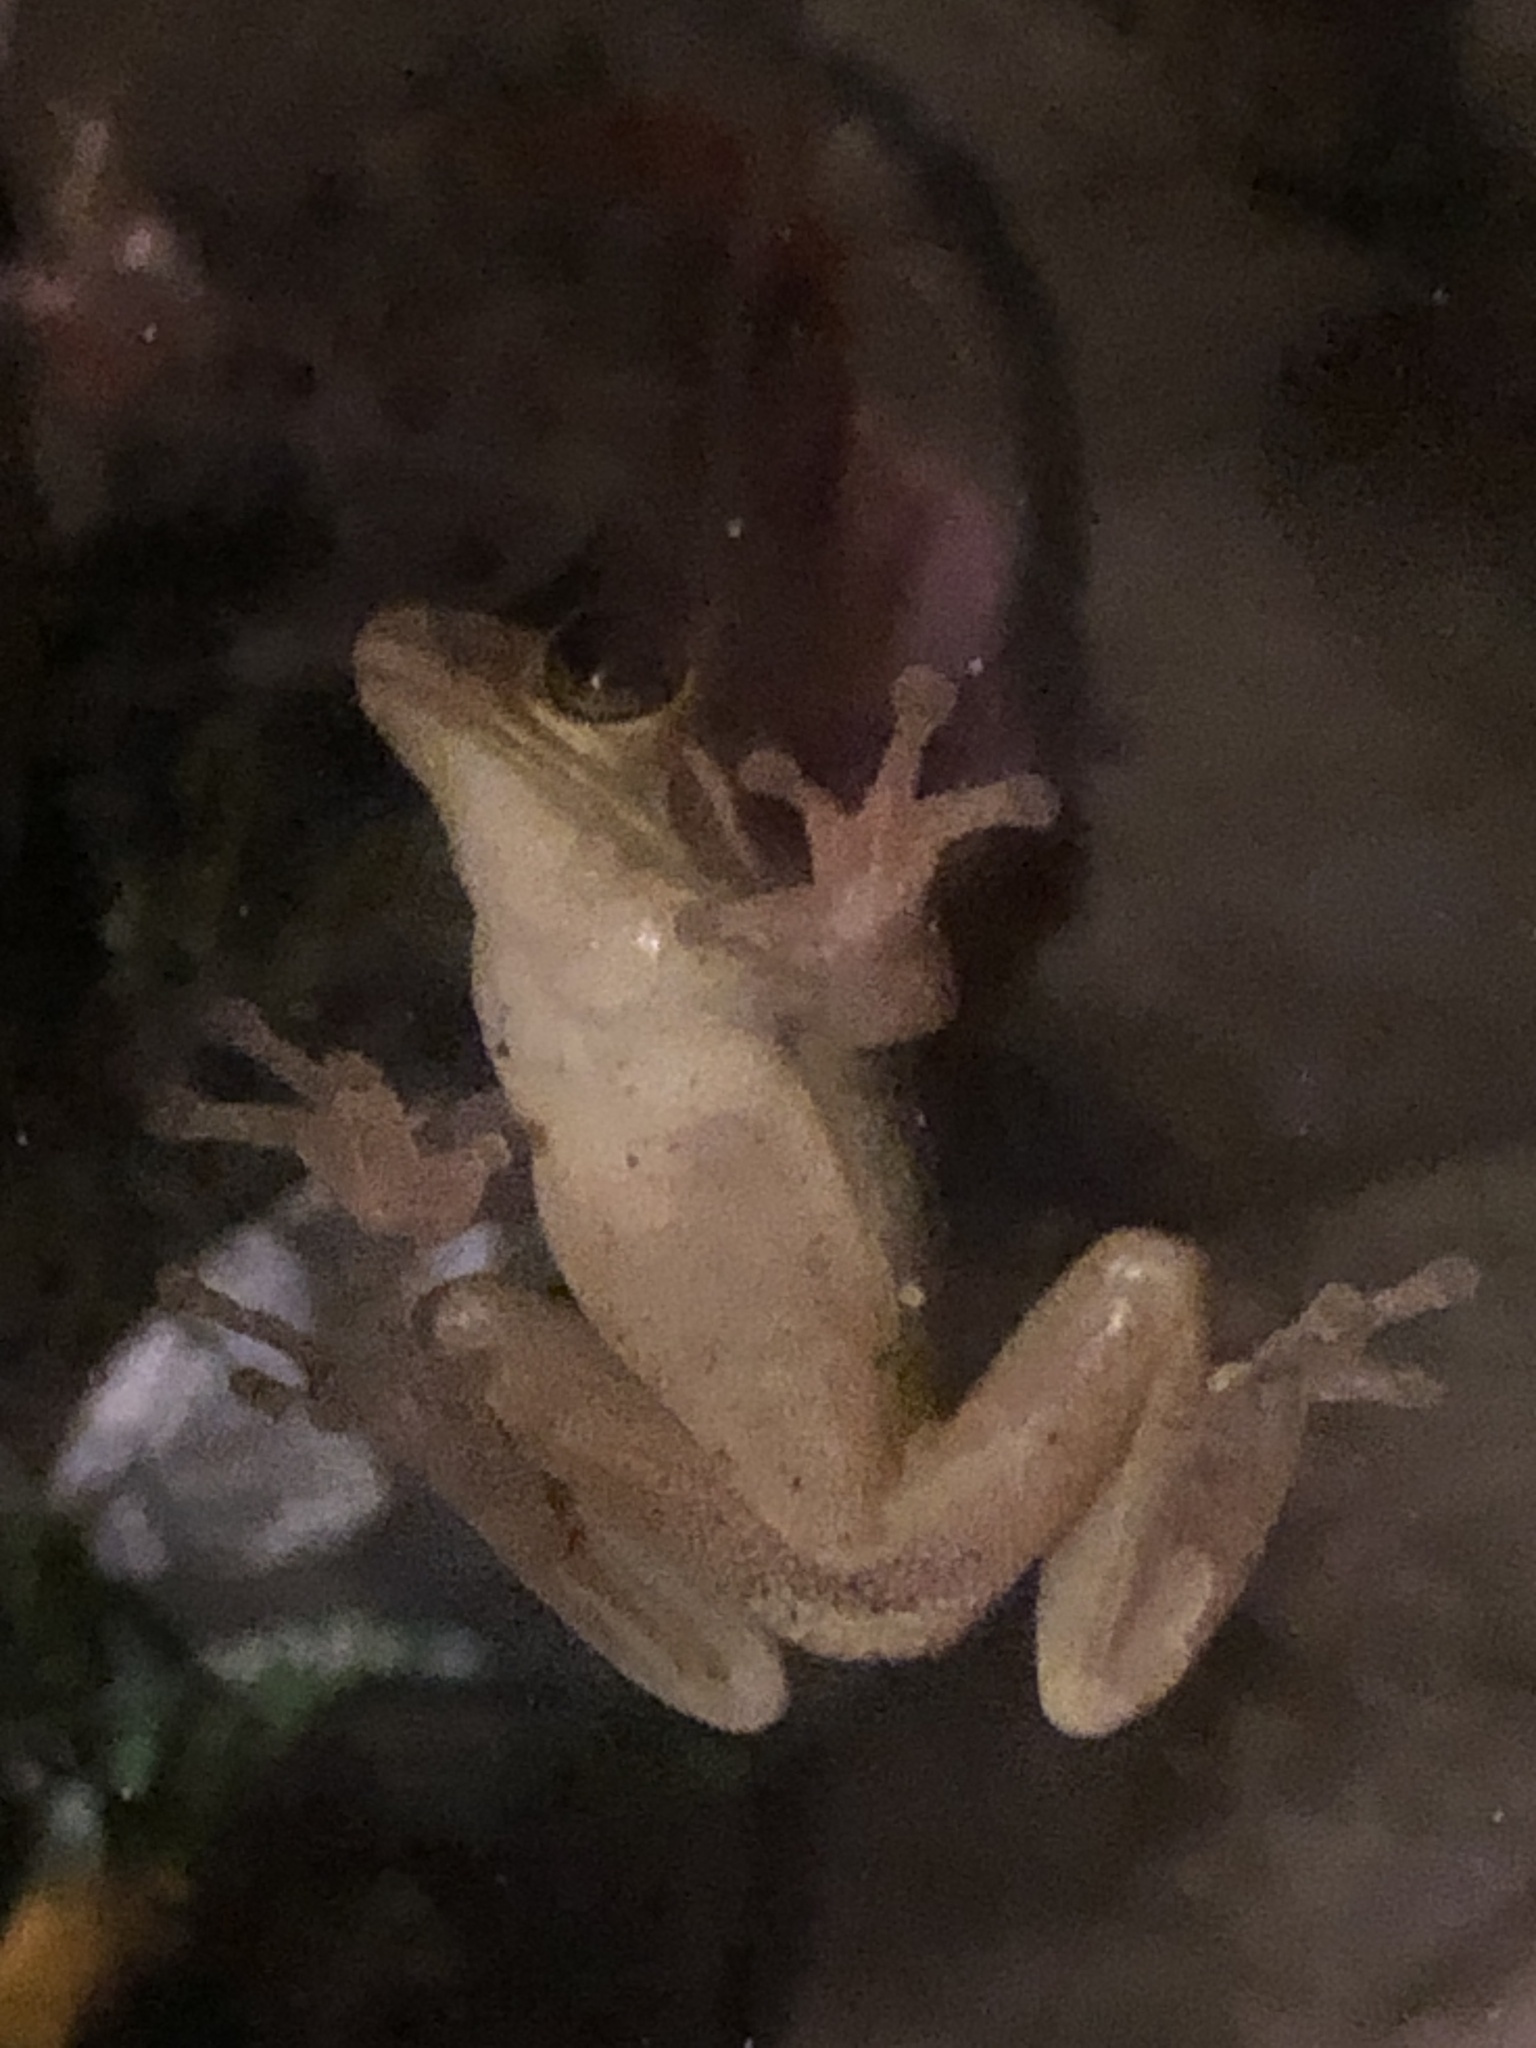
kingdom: Animalia
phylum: Chordata
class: Amphibia
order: Anura
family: Hylidae
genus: Osteopilus
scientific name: Osteopilus septentrionalis
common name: Cuban treefrog
